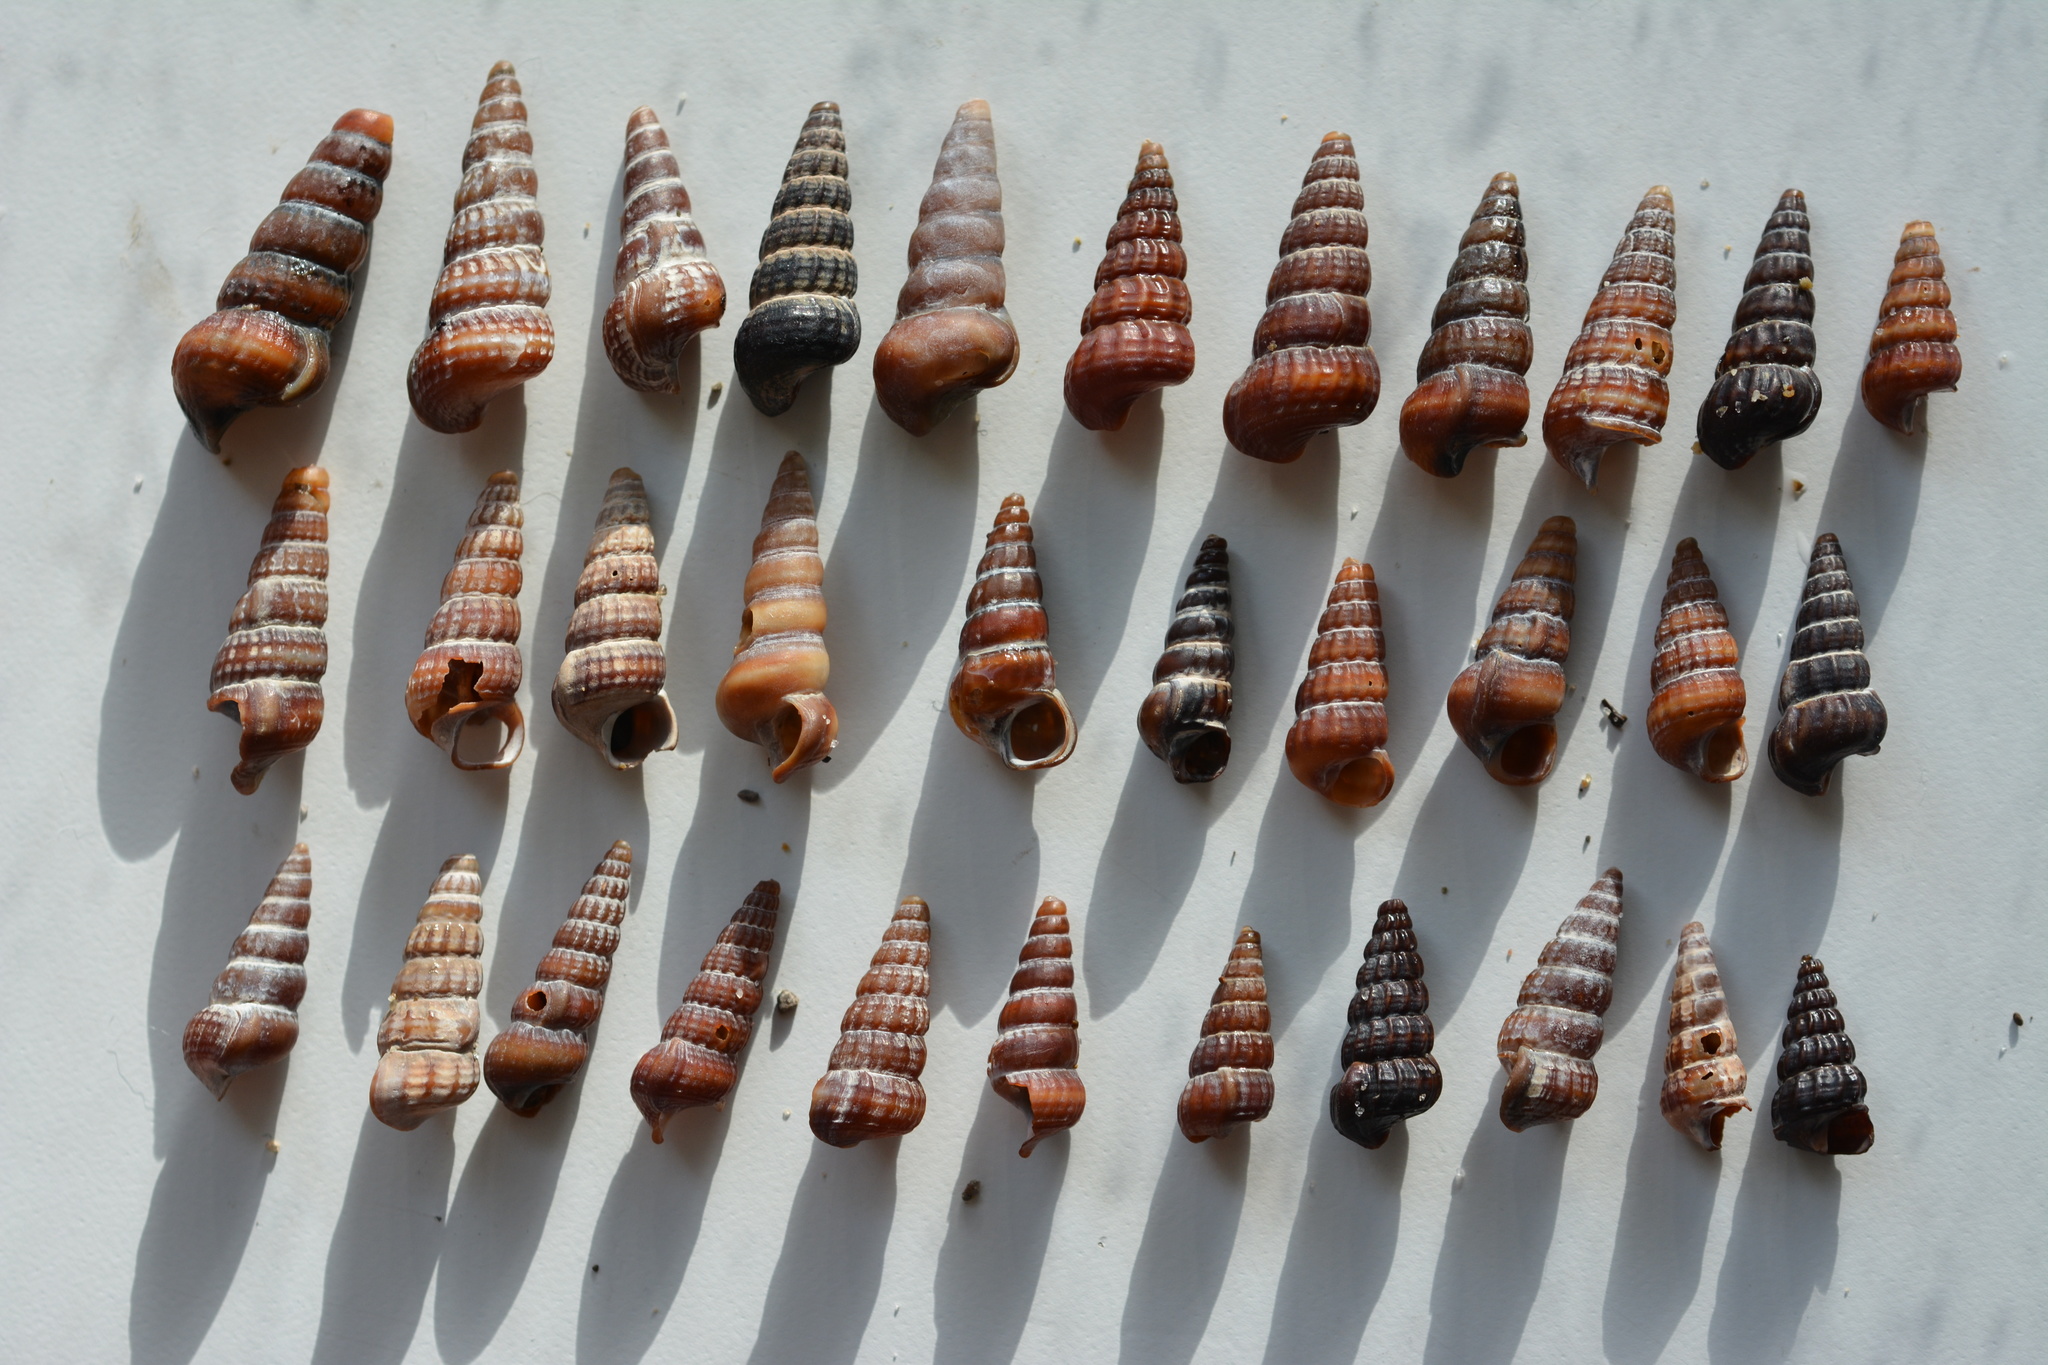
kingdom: Animalia
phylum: Mollusca
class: Gastropoda
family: Potamididae
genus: Cerithideopsis
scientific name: Cerithideopsis californica
